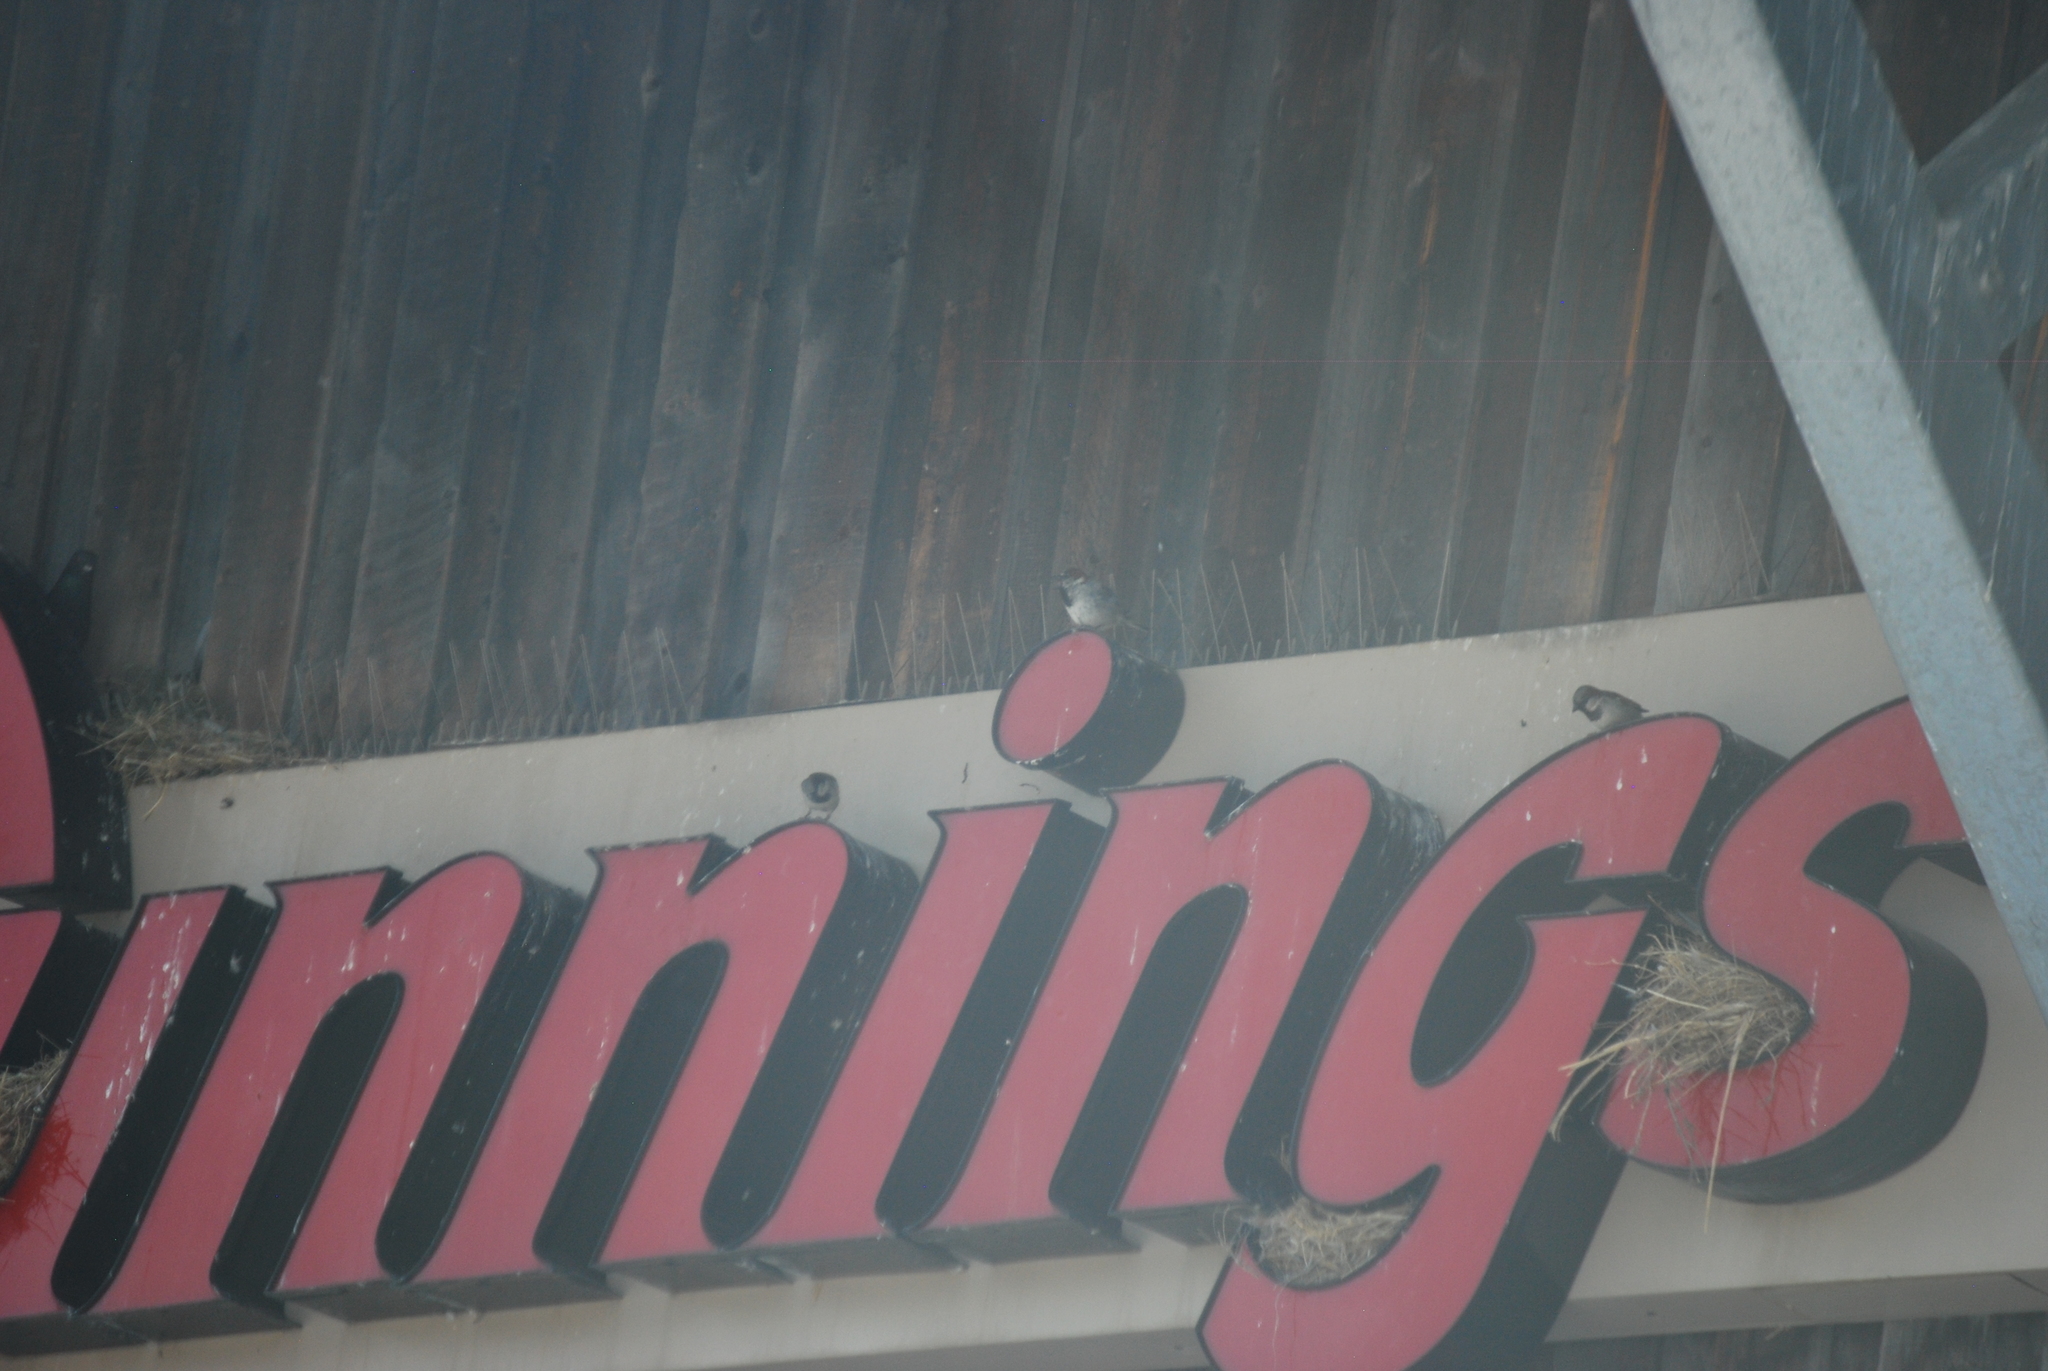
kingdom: Animalia
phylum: Chordata
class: Aves
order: Passeriformes
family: Passeridae
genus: Passer
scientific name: Passer domesticus
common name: House sparrow
